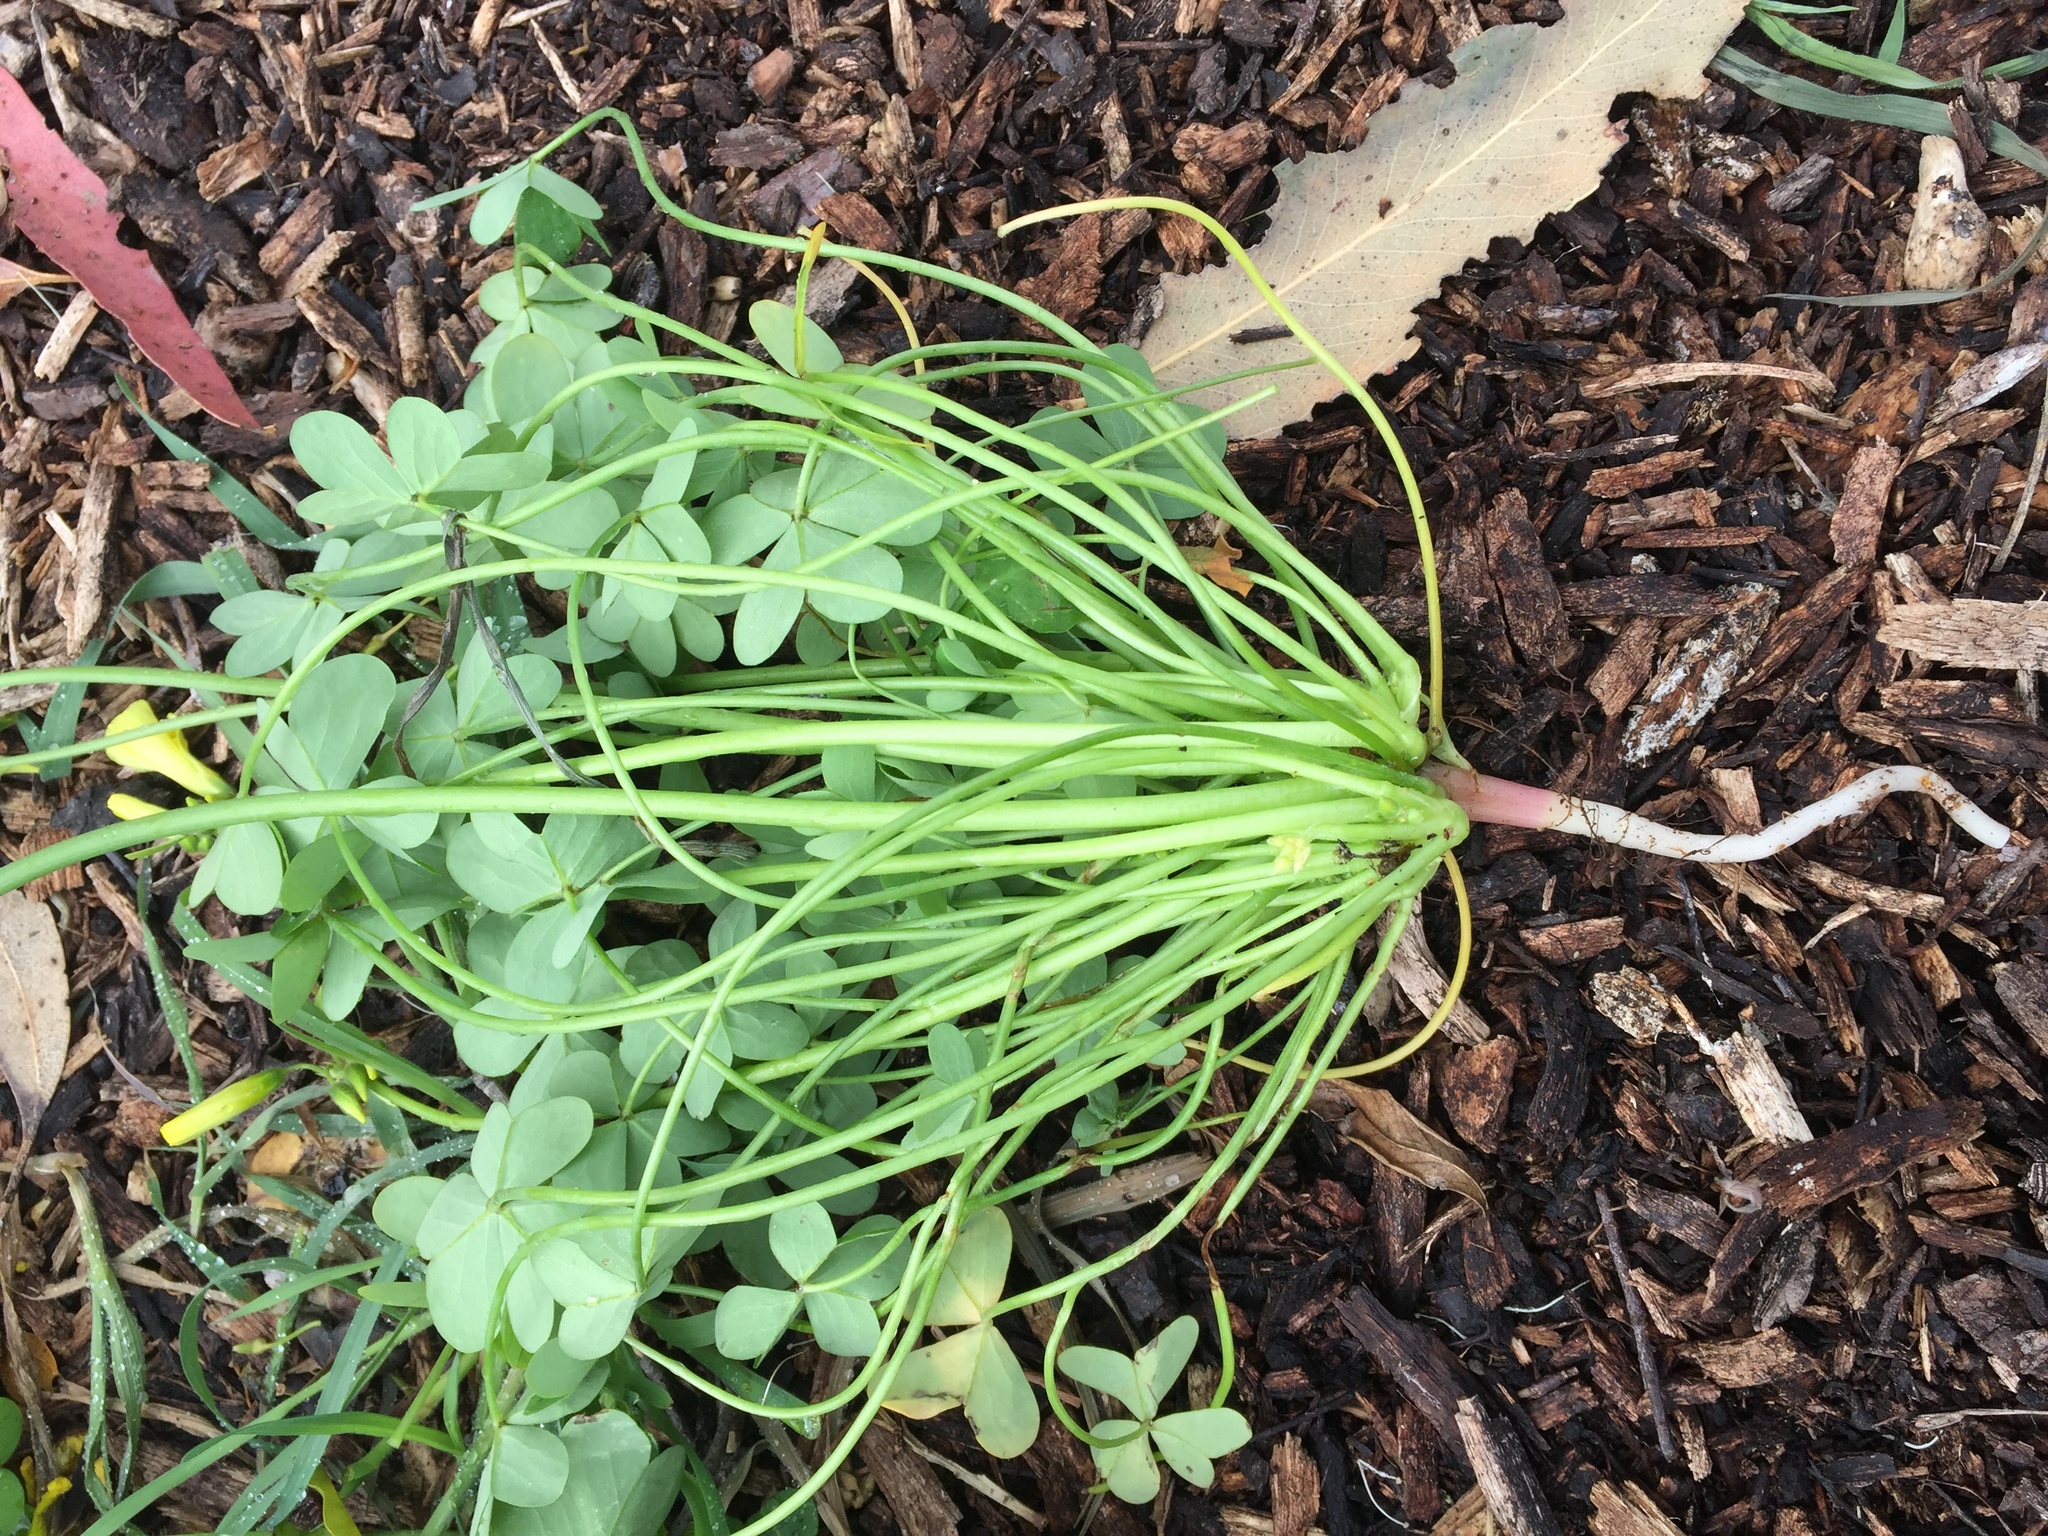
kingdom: Plantae
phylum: Tracheophyta
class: Magnoliopsida
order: Oxalidales
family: Oxalidaceae
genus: Oxalis
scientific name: Oxalis pes-caprae
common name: Bermuda-buttercup
